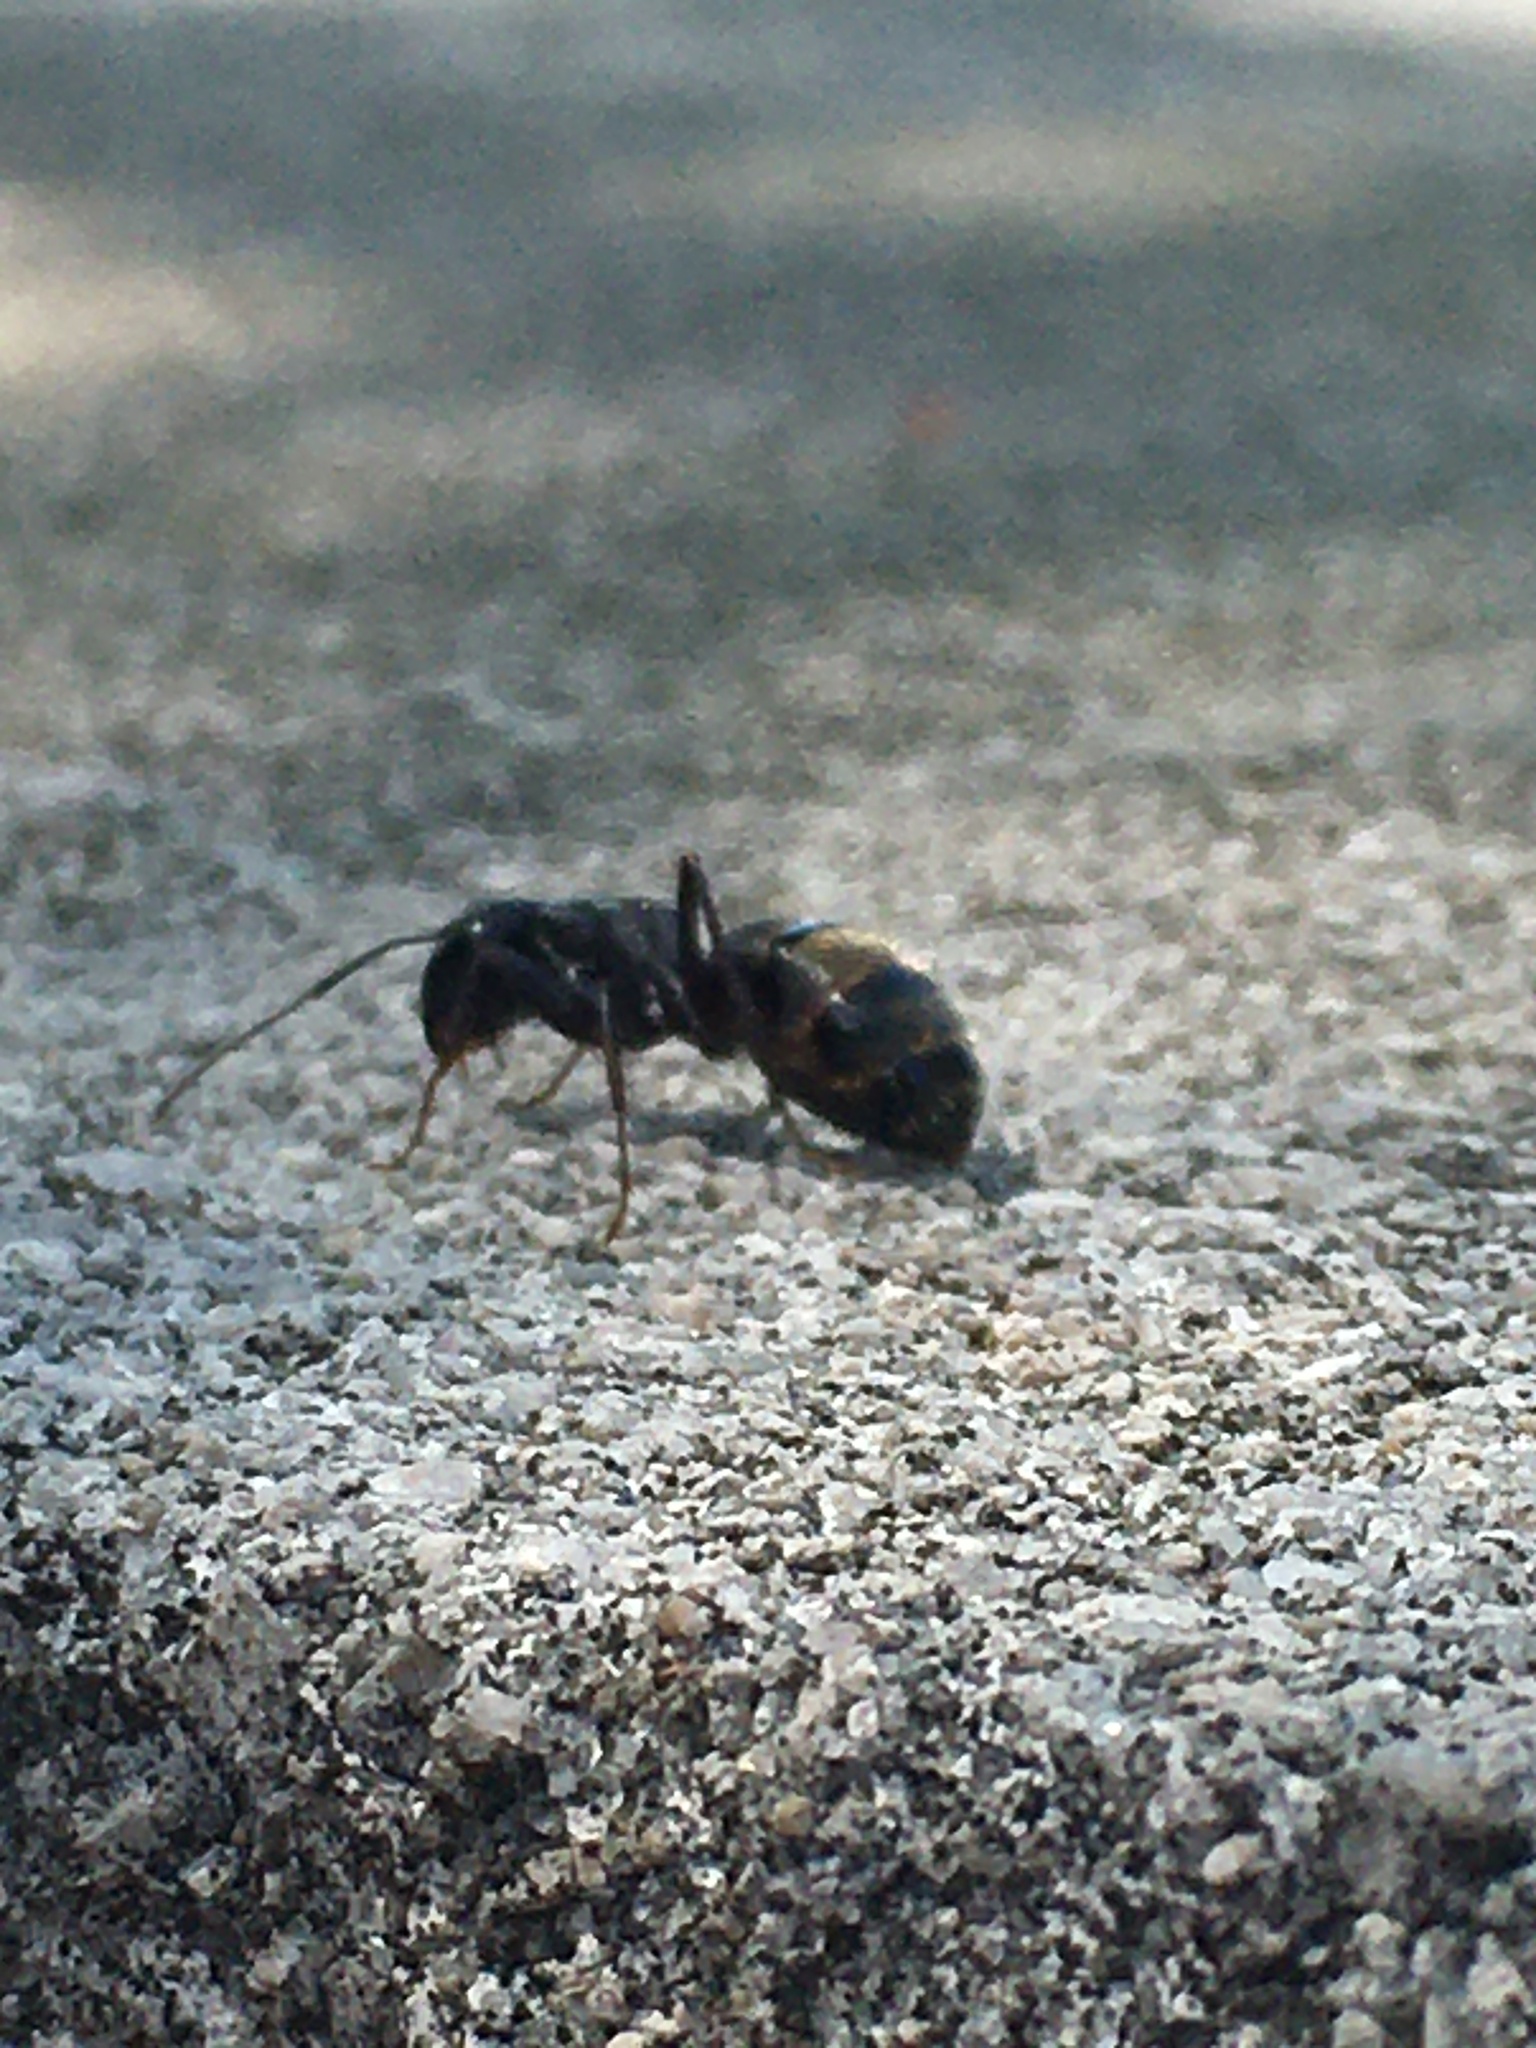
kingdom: Animalia
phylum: Arthropoda
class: Insecta
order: Hymenoptera
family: Formicidae
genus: Camponotus
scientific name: Camponotus pennsylvanicus
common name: Black carpenter ant
